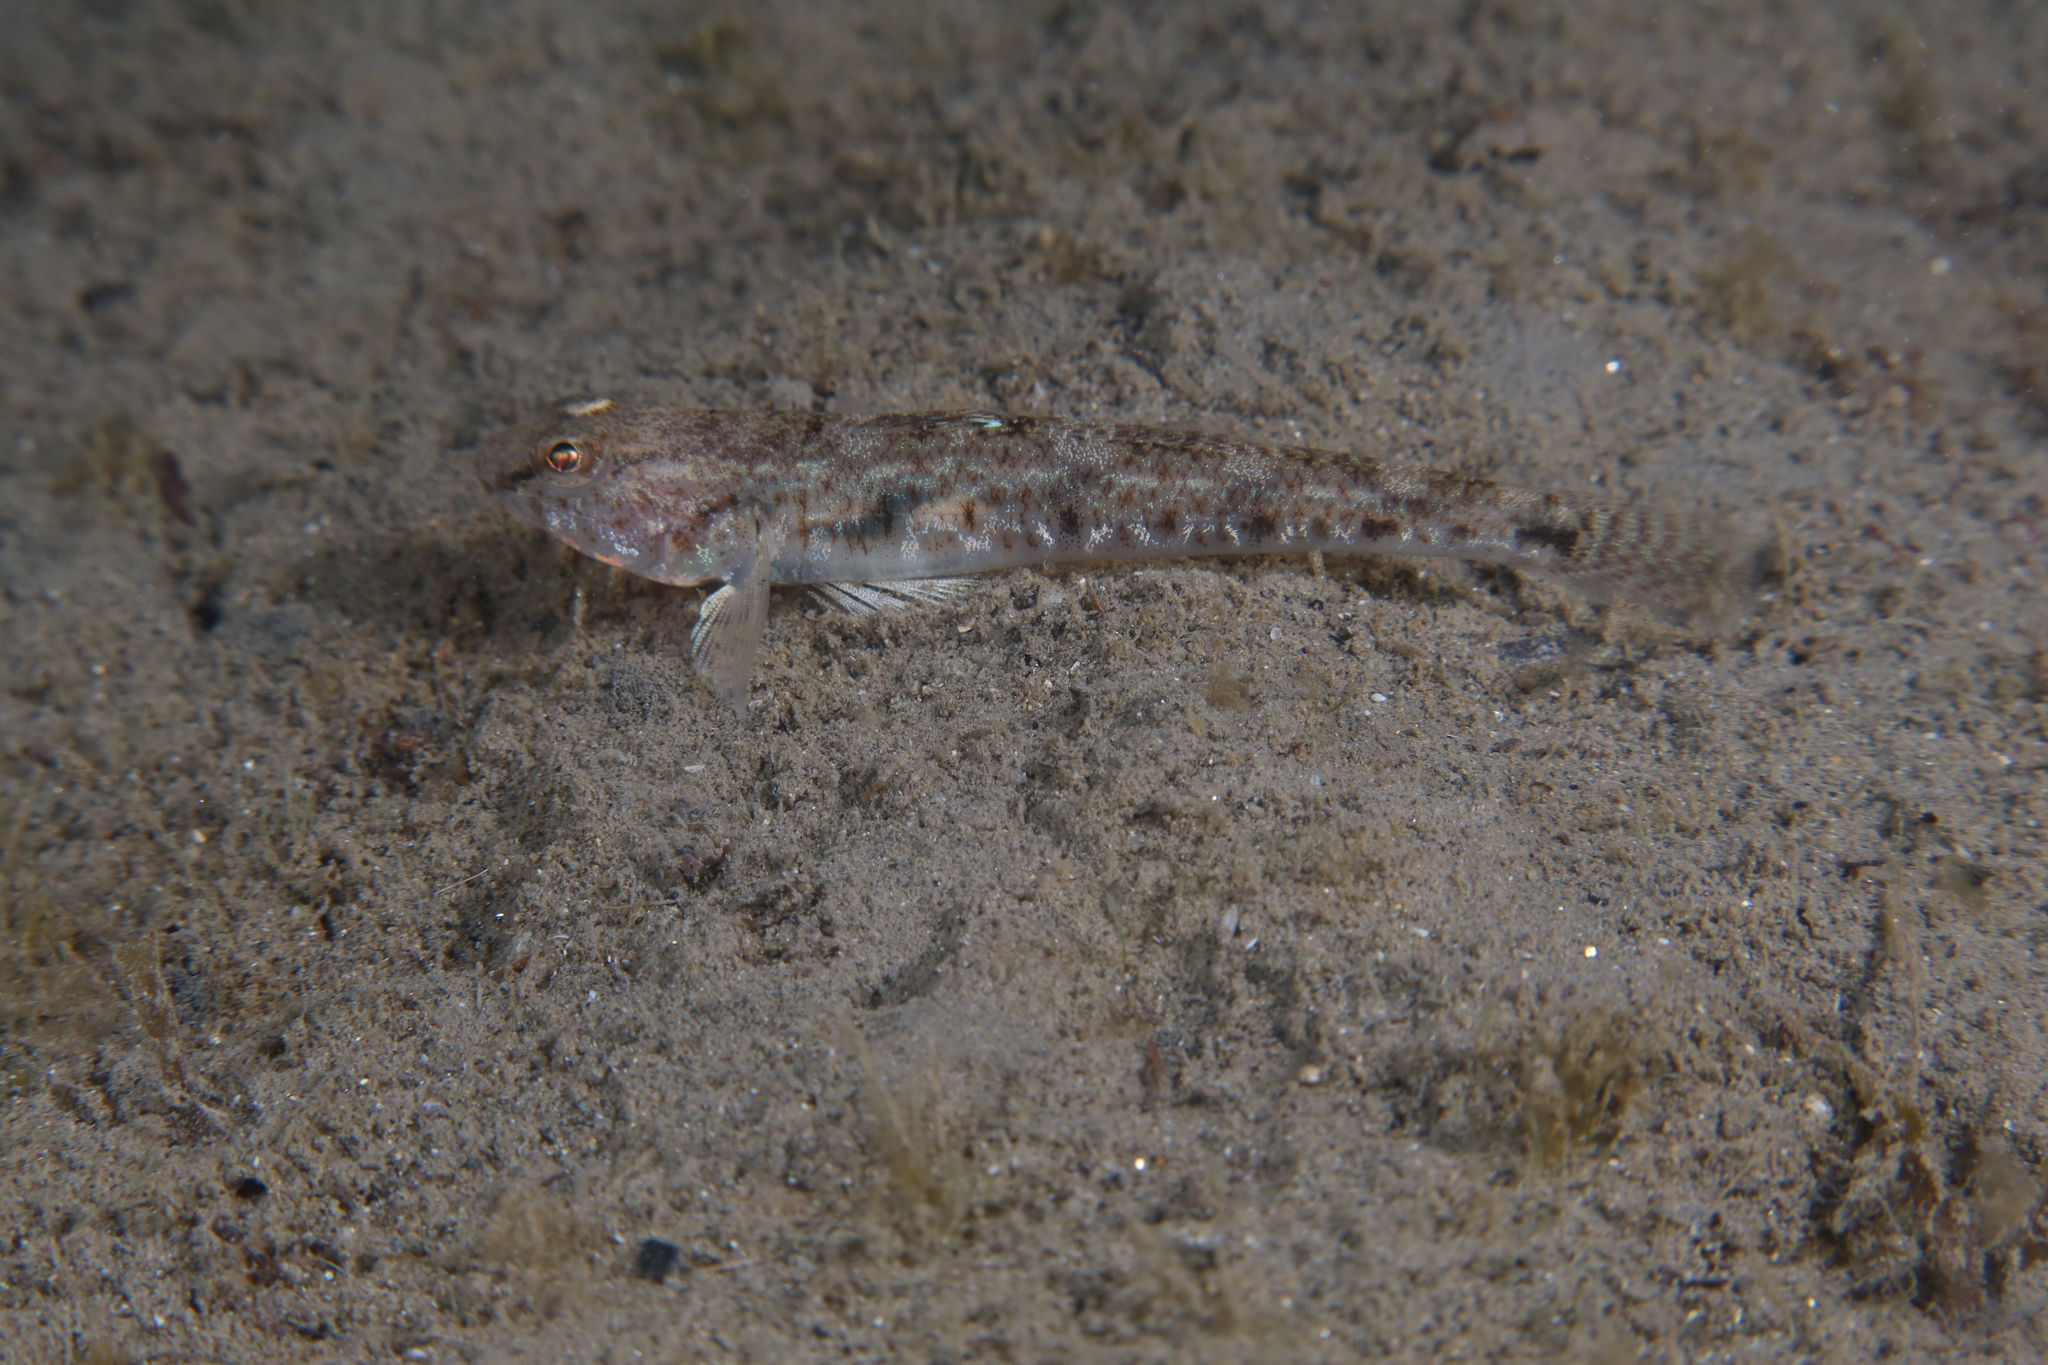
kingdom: Animalia
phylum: Chordata
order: Perciformes
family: Gobiidae
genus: Pomatoschistus
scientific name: Pomatoschistus minutus
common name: Sand goby
